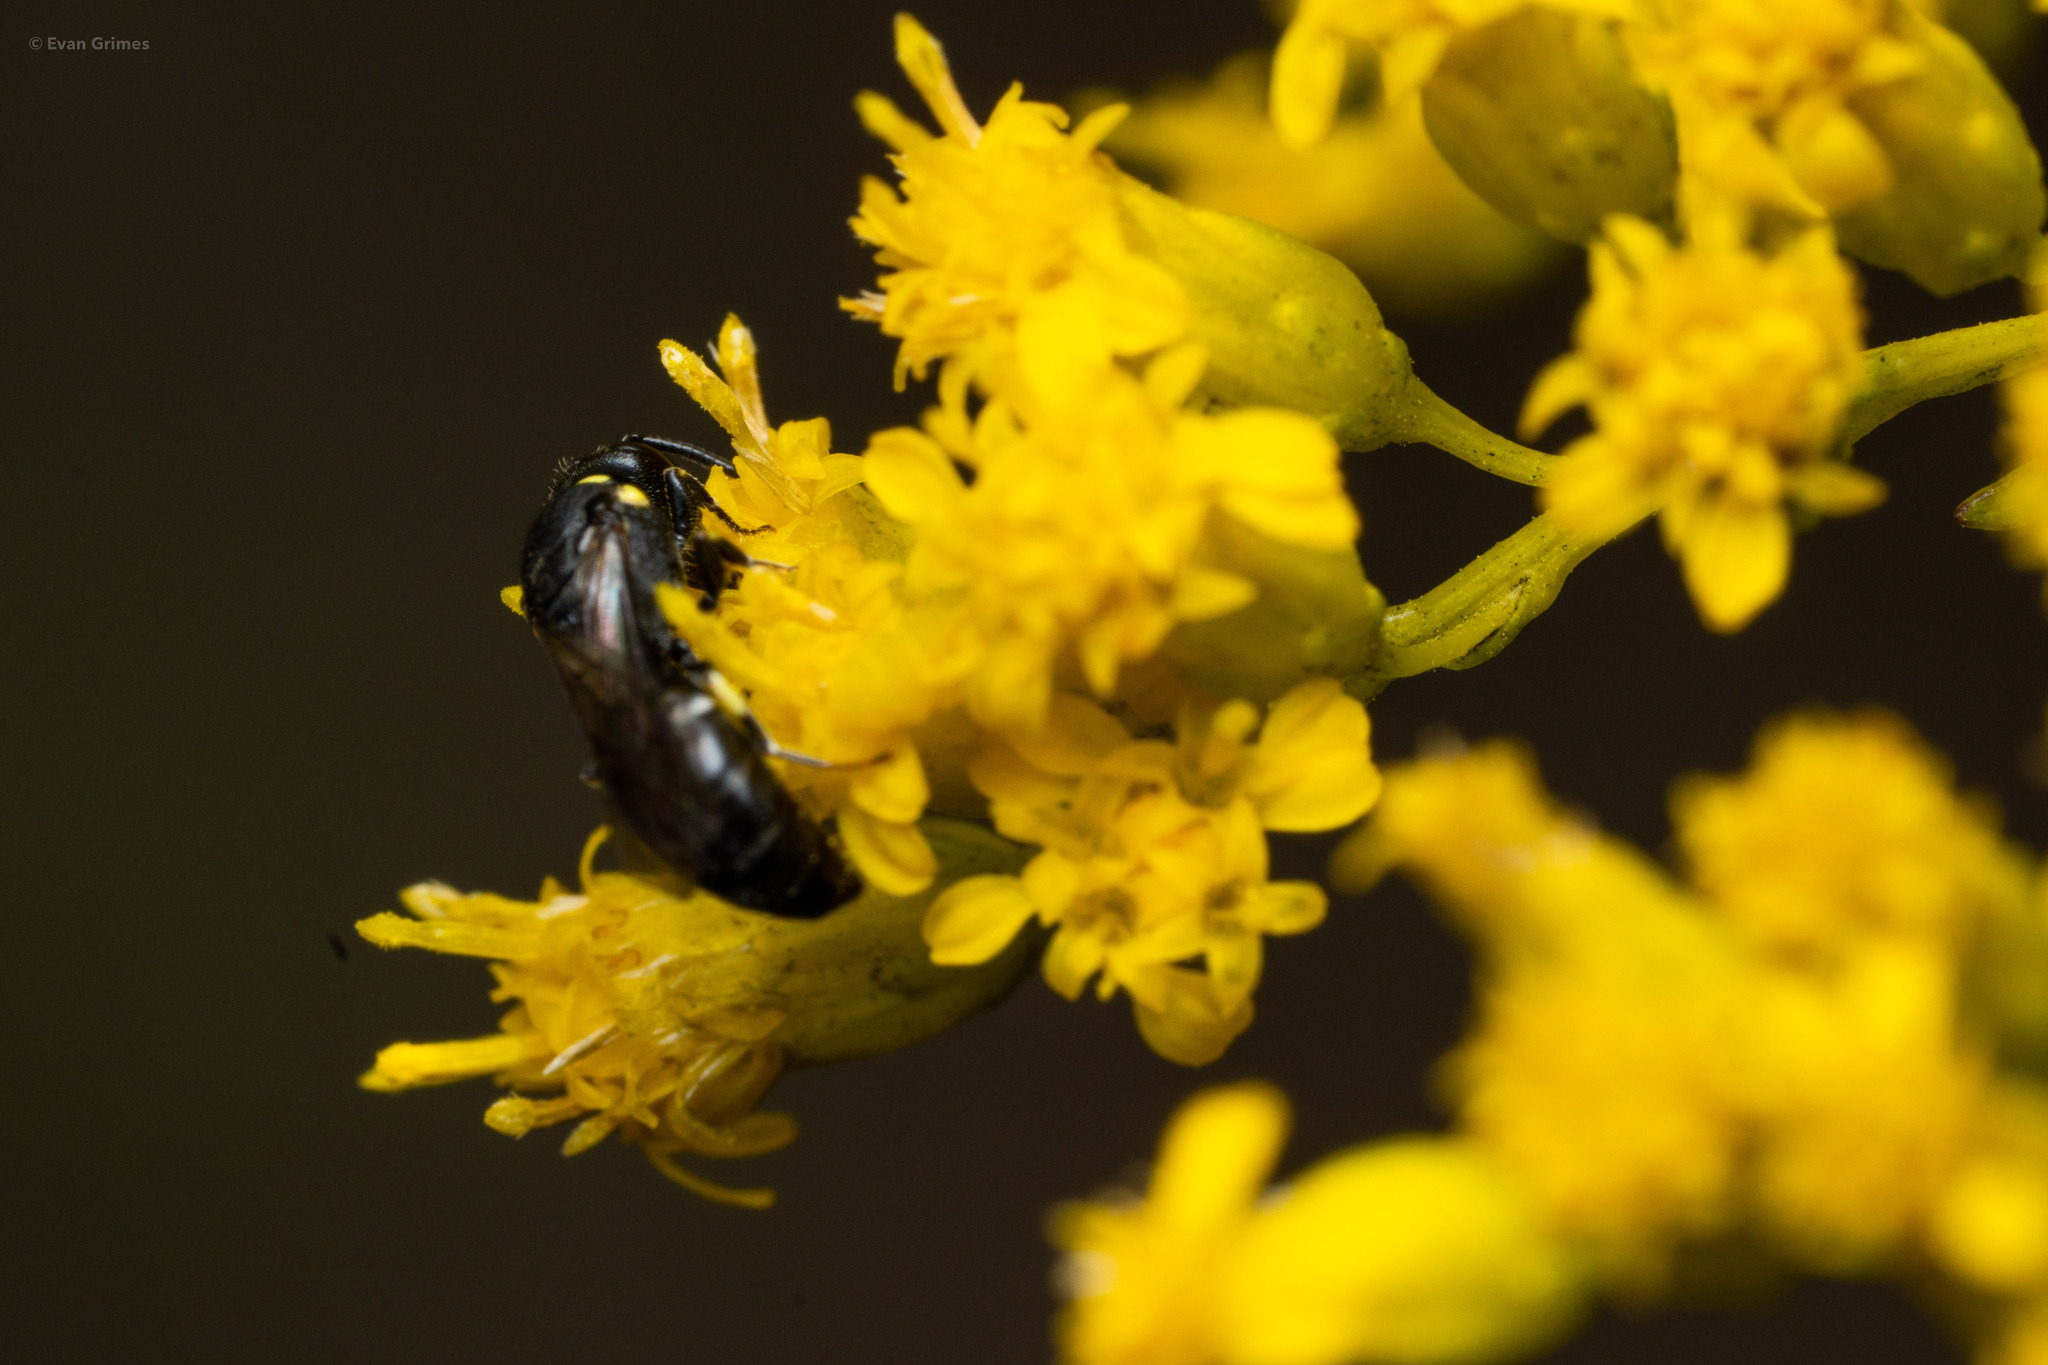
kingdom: Animalia
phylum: Arthropoda
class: Insecta
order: Hymenoptera
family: Colletidae
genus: Hylaeus
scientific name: Hylaeus modestus
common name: Yellow-faced bee
